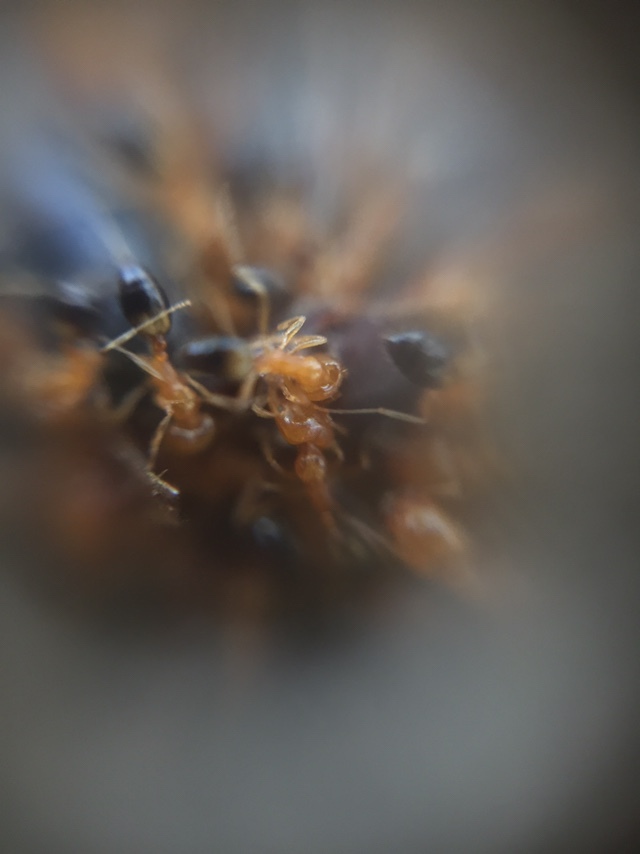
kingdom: Animalia
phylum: Arthropoda
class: Insecta
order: Hymenoptera
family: Formicidae
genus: Monomorium
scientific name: Monomorium destructor
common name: Destructive trailing ant
